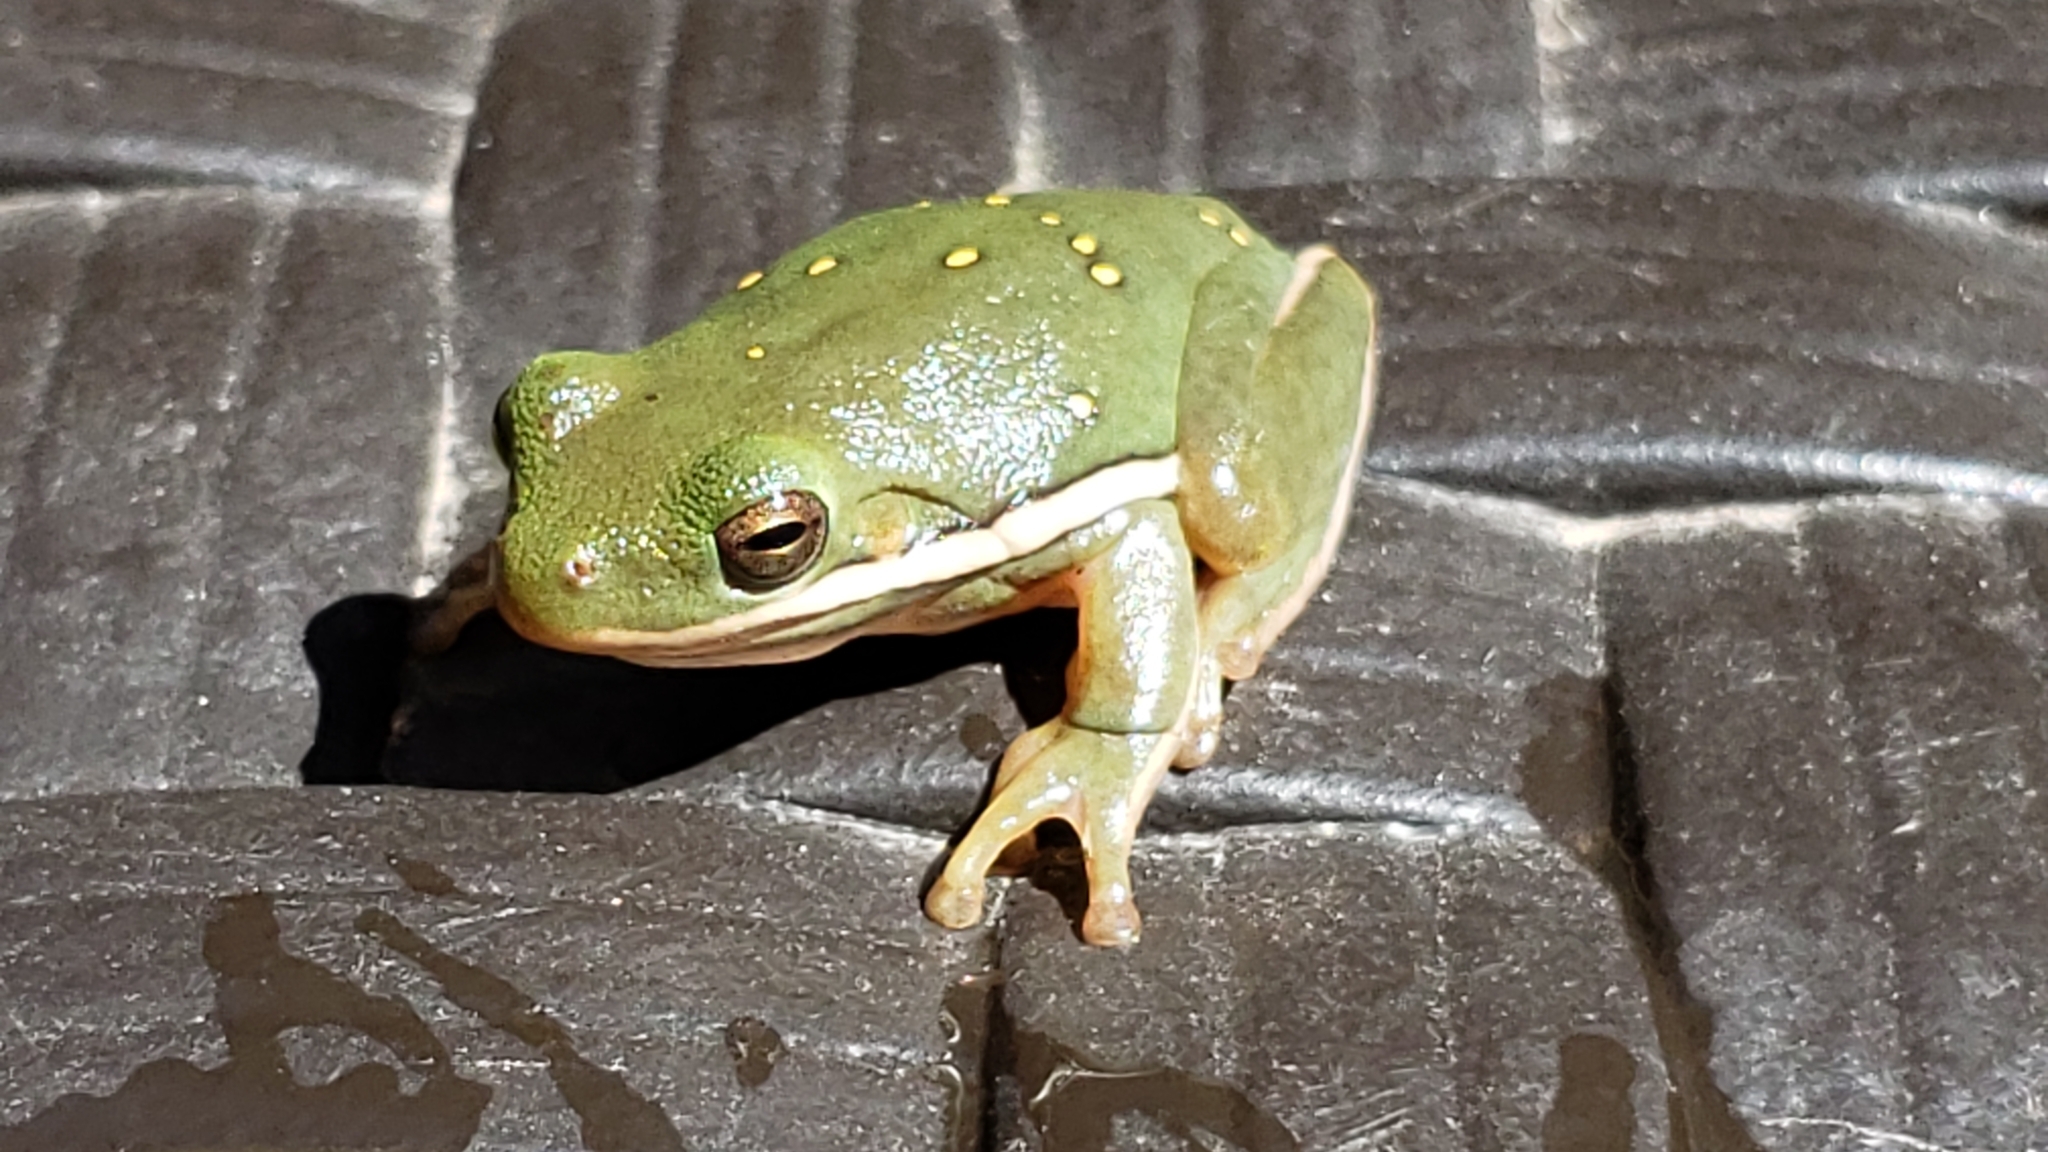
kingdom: Animalia
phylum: Chordata
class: Amphibia
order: Anura
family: Hylidae
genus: Dryophytes
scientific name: Dryophytes cinereus
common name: Green treefrog
